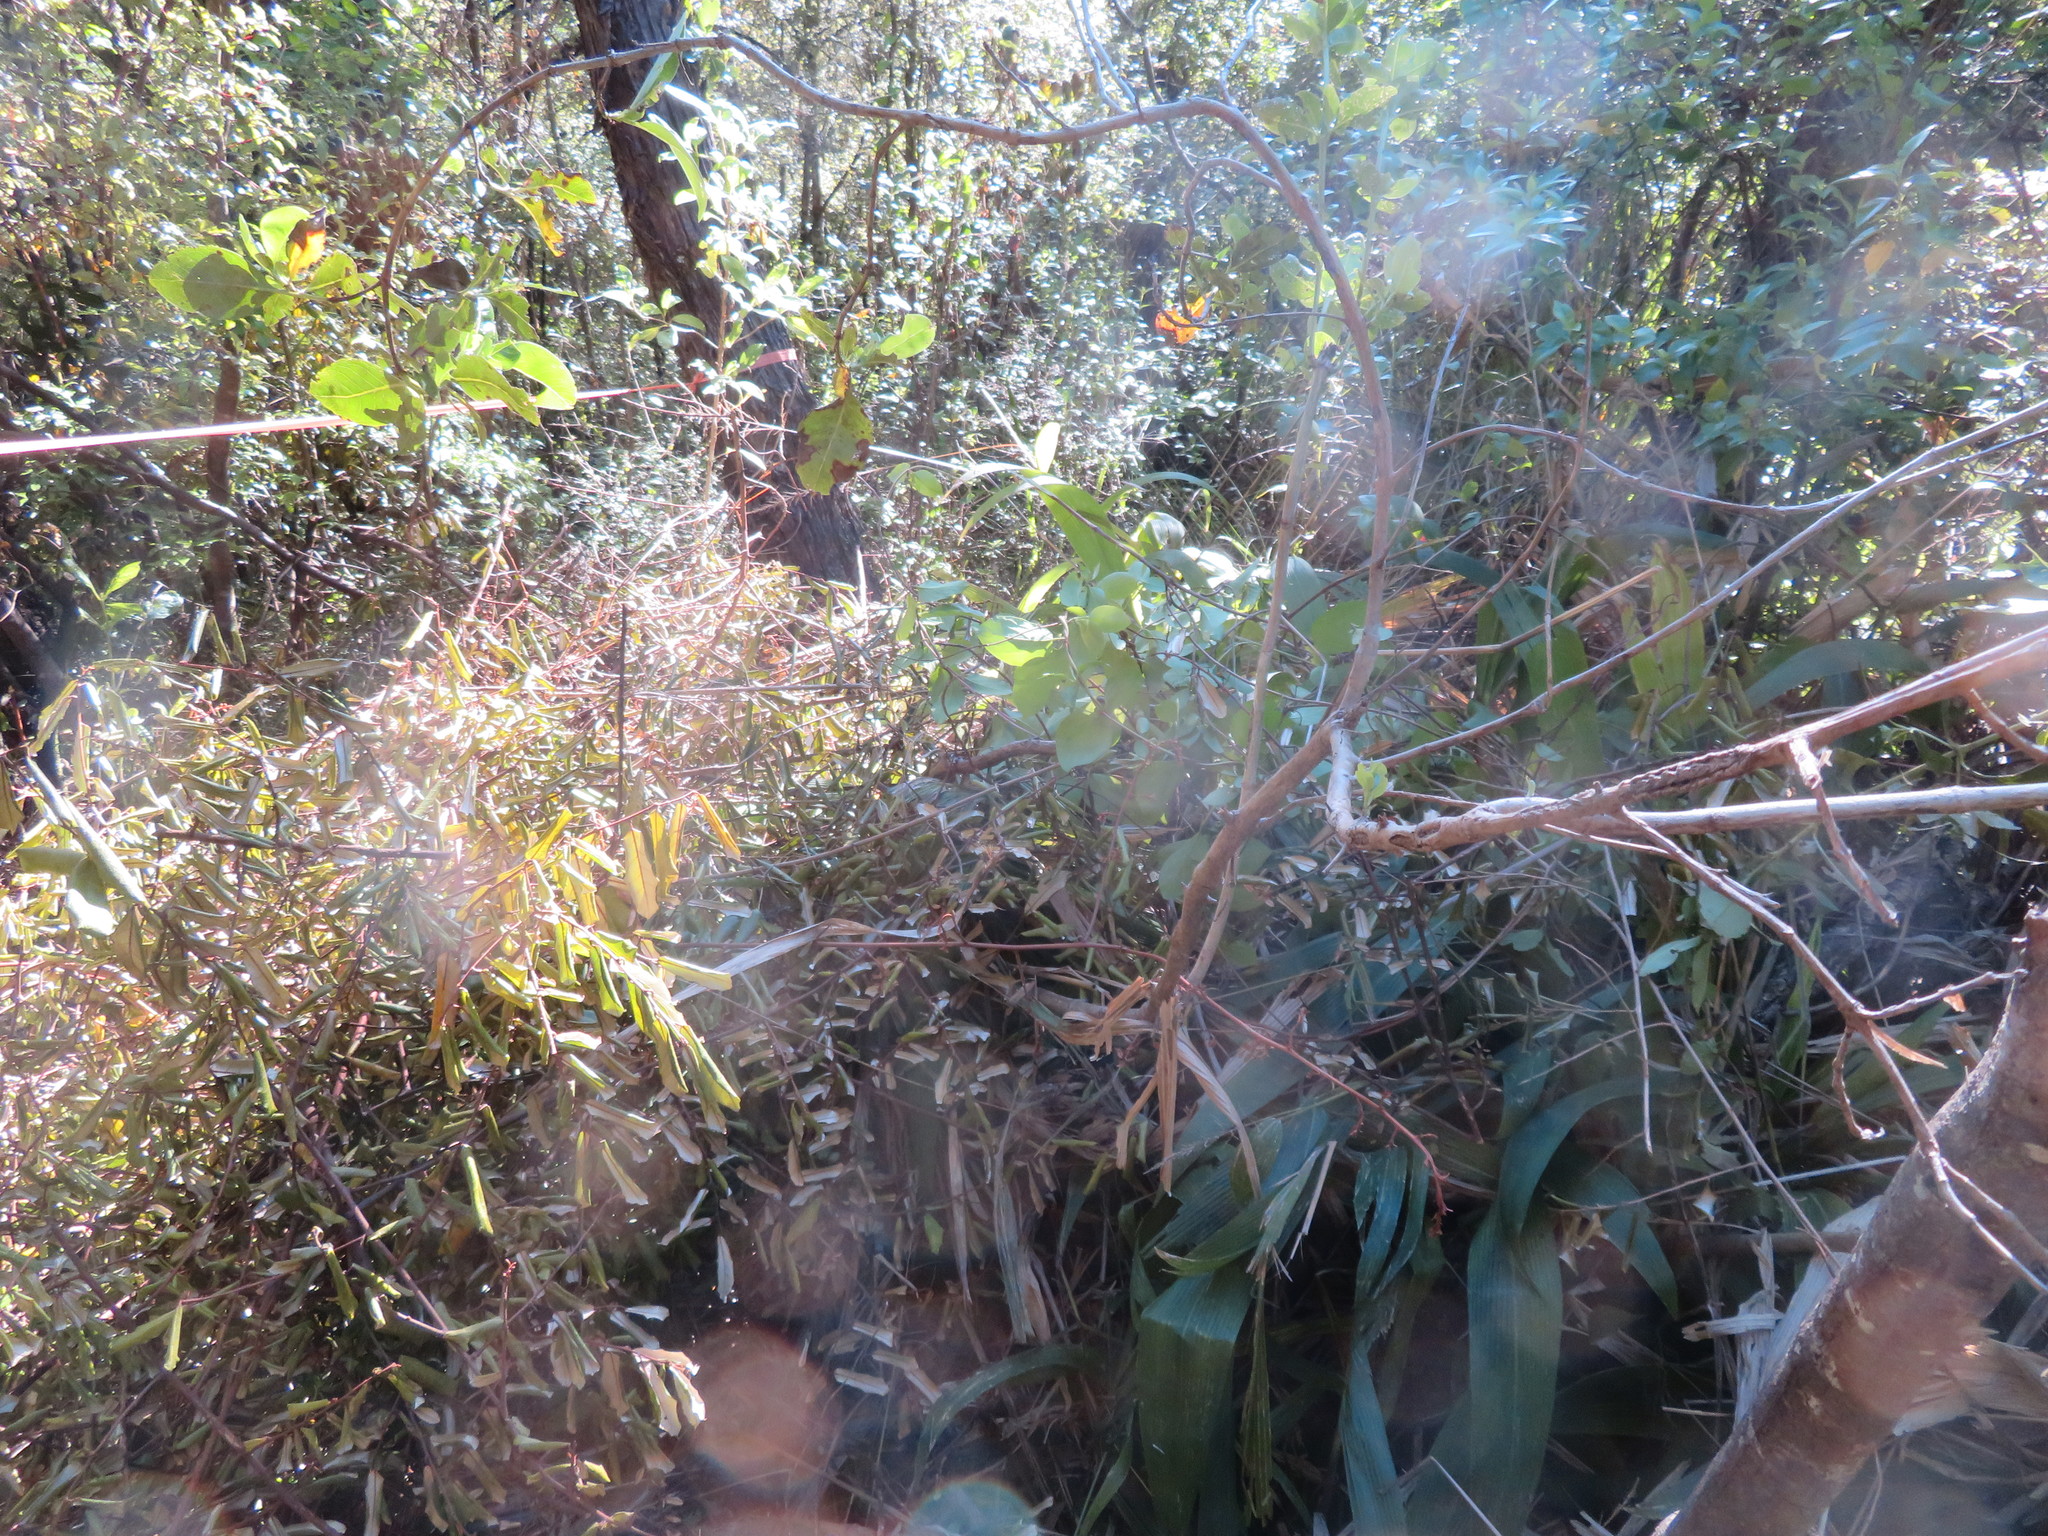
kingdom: Plantae
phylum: Tracheophyta
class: Liliopsida
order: Poales
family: Poaceae
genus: Setaria
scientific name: Setaria palmifolia
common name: Broadleaved bristlegrass
